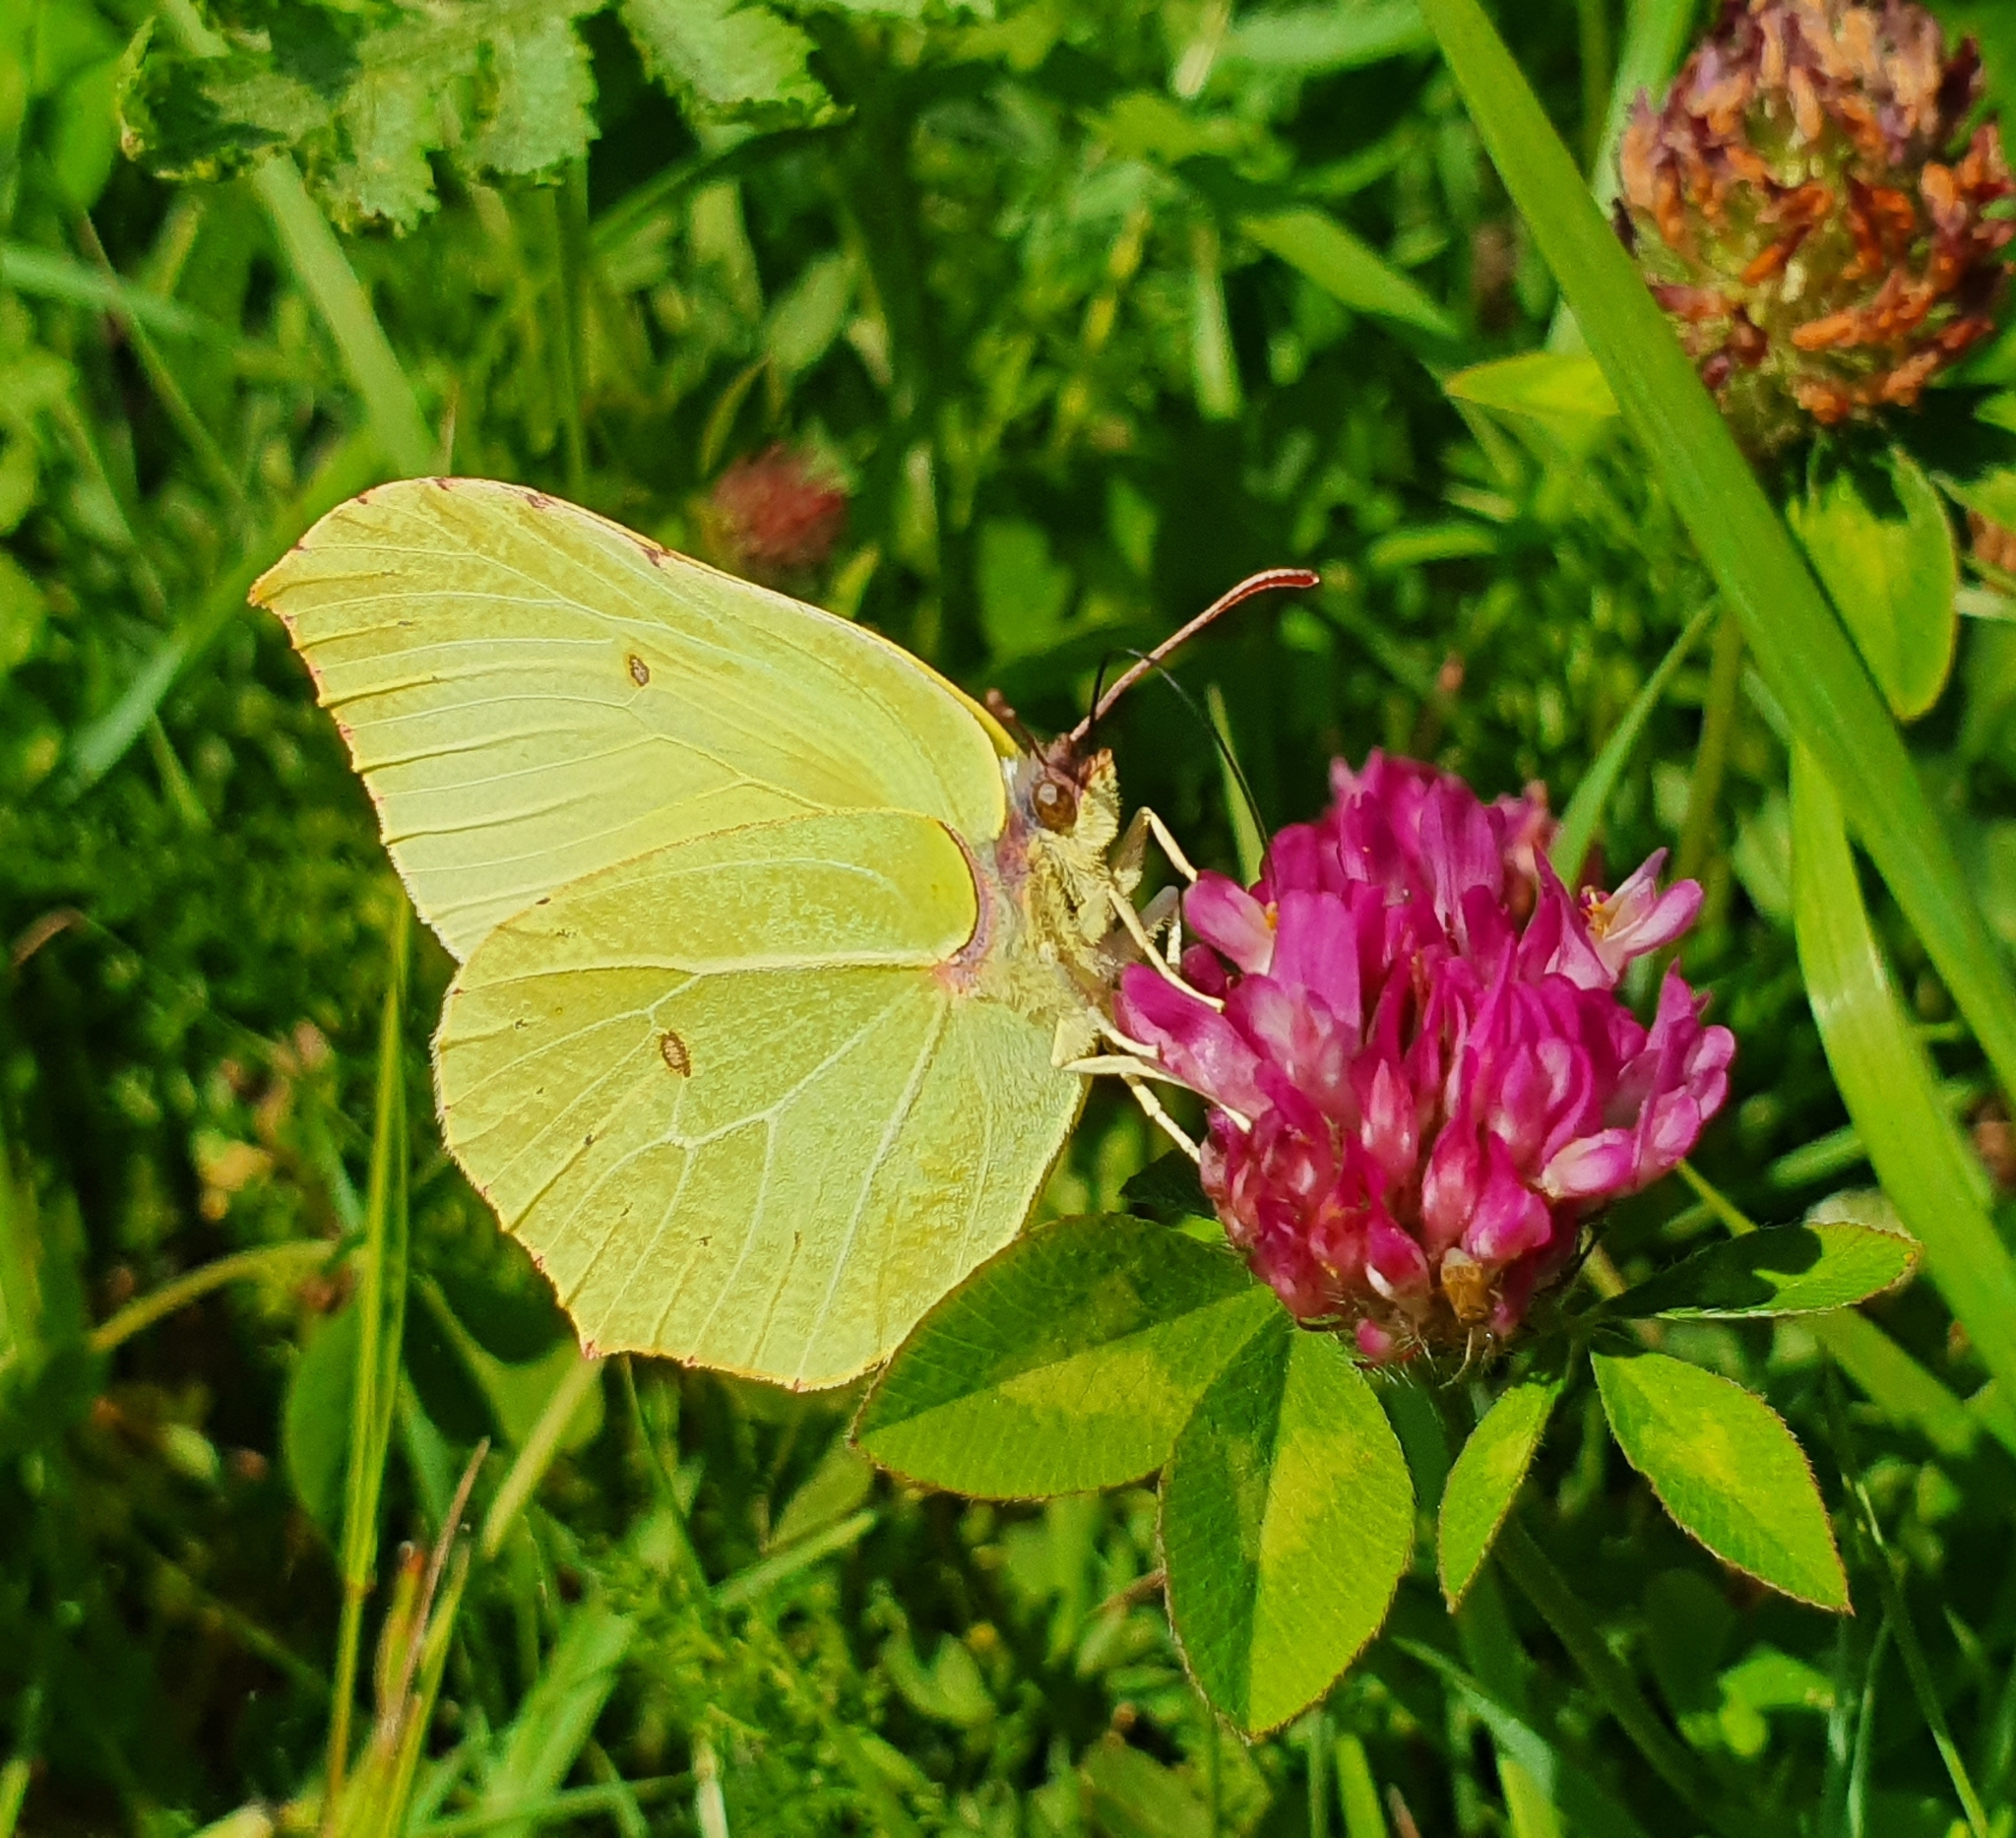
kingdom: Animalia
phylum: Arthropoda
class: Insecta
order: Lepidoptera
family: Pieridae
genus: Gonepteryx
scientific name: Gonepteryx rhamni
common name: Brimstone
